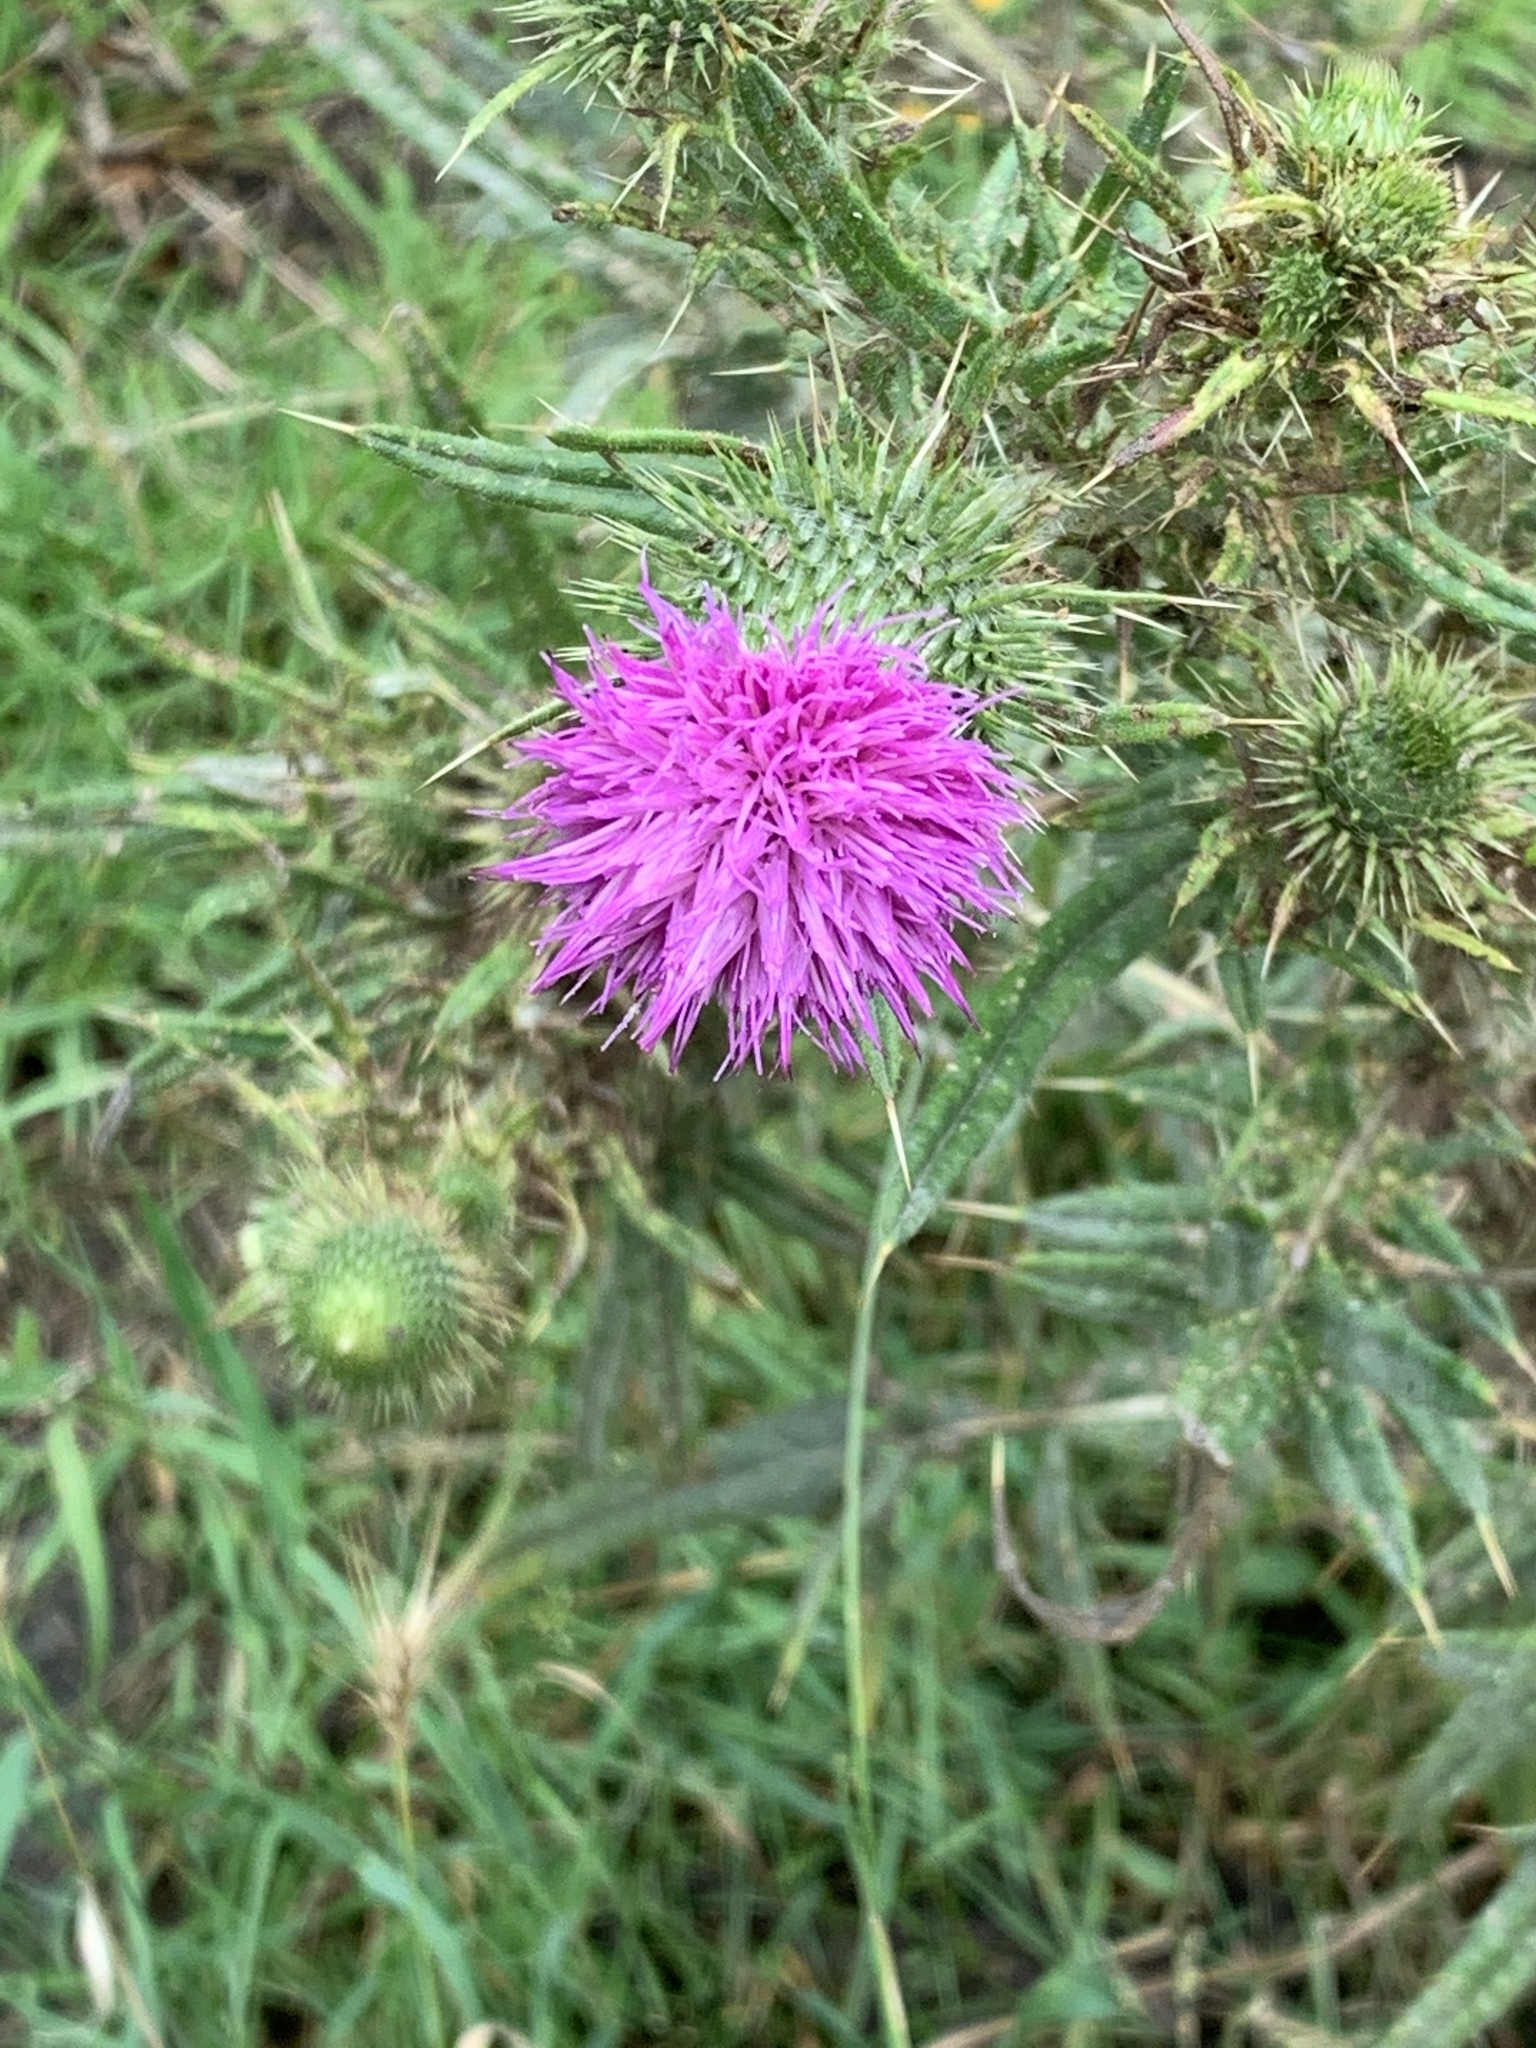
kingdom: Plantae
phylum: Tracheophyta
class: Magnoliopsida
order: Asterales
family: Asteraceae
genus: Cirsium
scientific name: Cirsium vulgare
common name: Bull thistle
